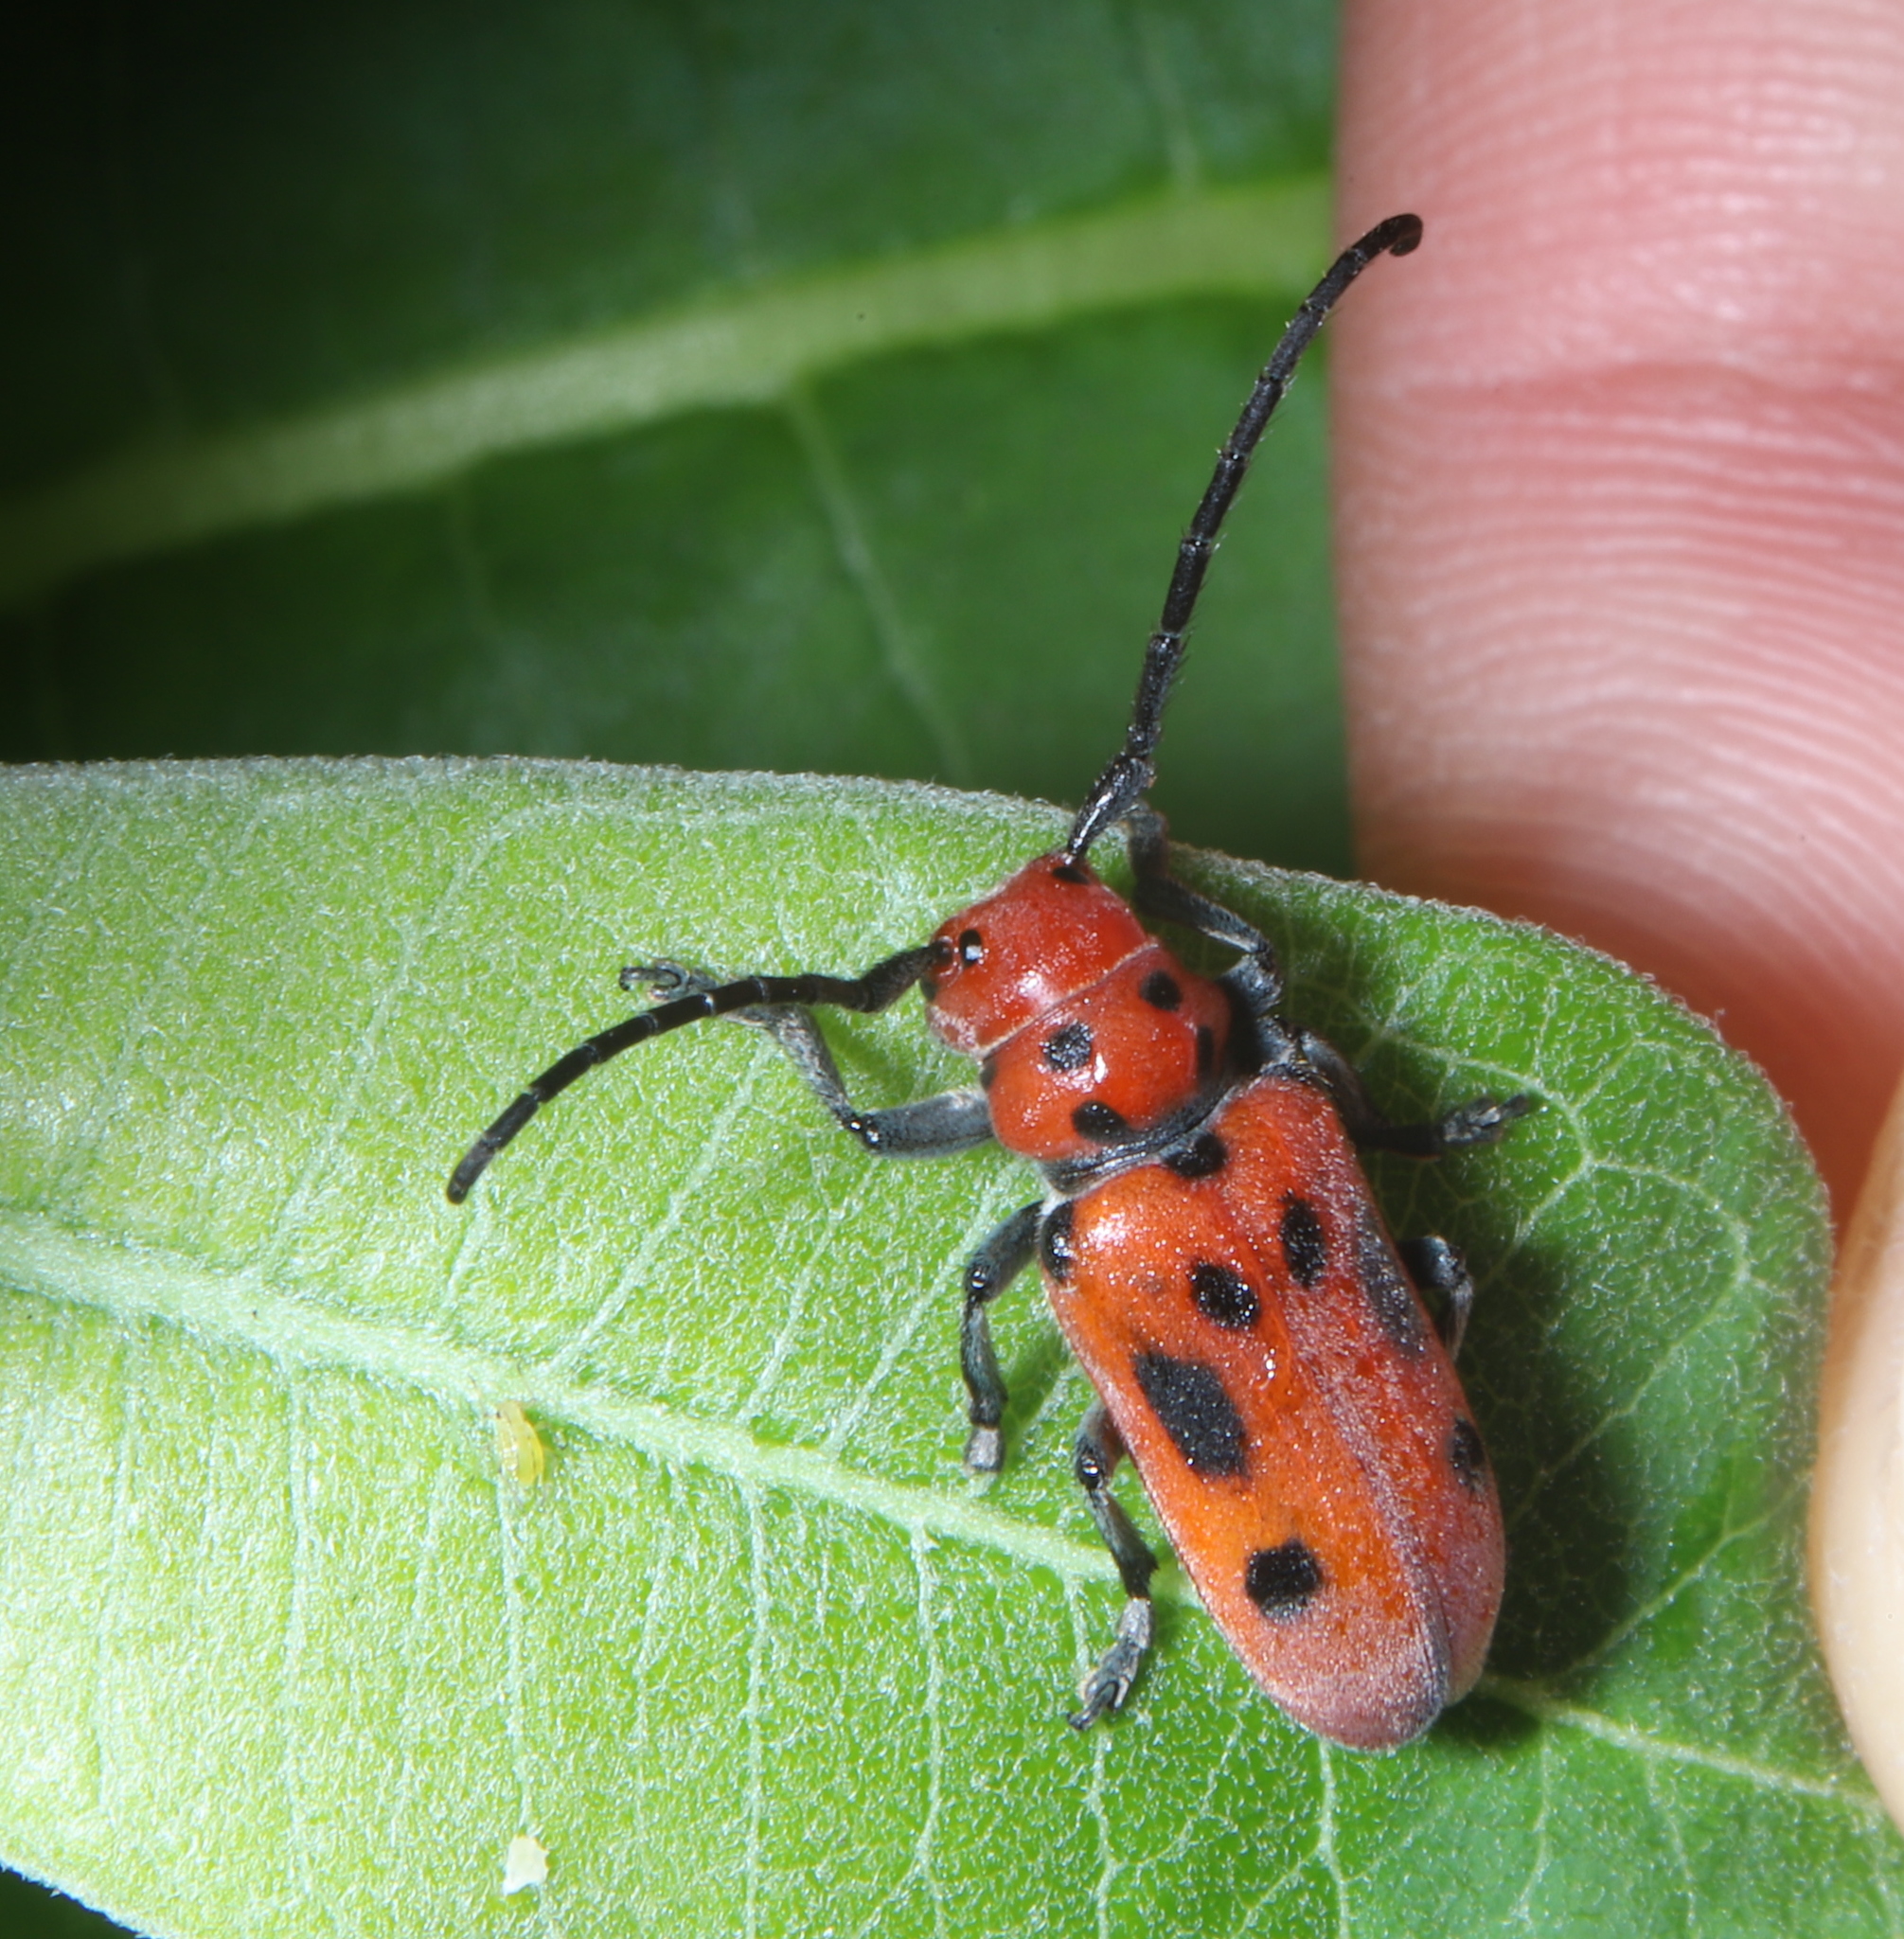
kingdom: Animalia
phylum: Arthropoda
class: Insecta
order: Coleoptera
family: Cerambycidae
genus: Tetraopes
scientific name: Tetraopes tetrophthalmus
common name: Red milkweed beetle
